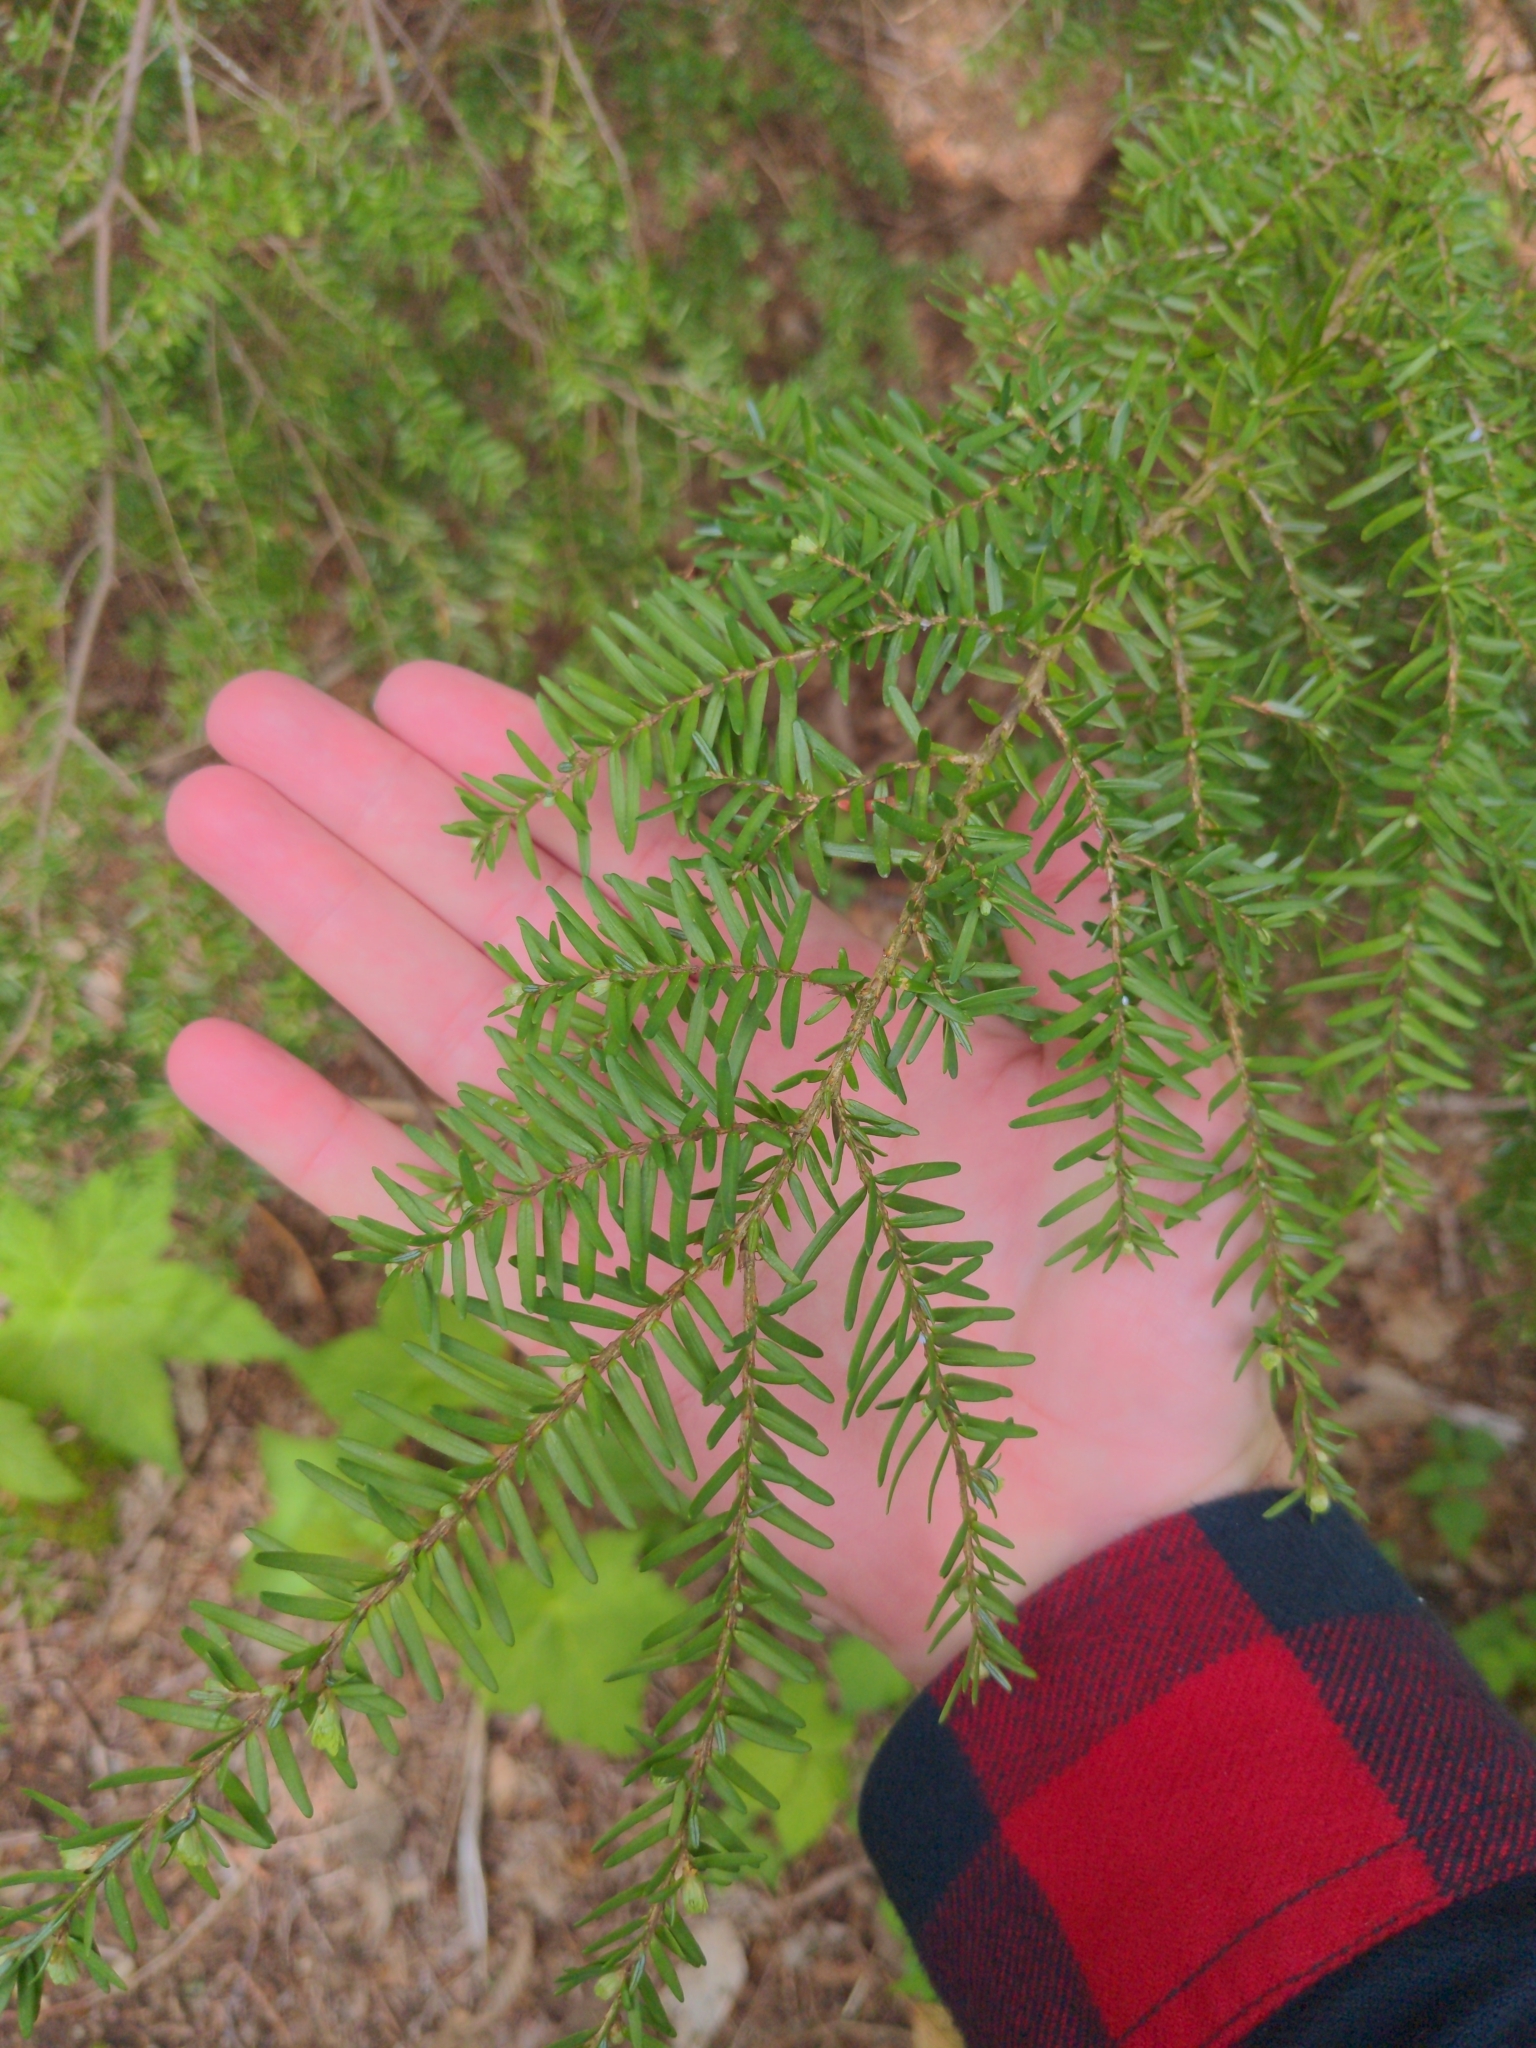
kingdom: Plantae
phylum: Tracheophyta
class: Pinopsida
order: Pinales
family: Pinaceae
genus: Tsuga
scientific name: Tsuga heterophylla
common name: Western hemlock
